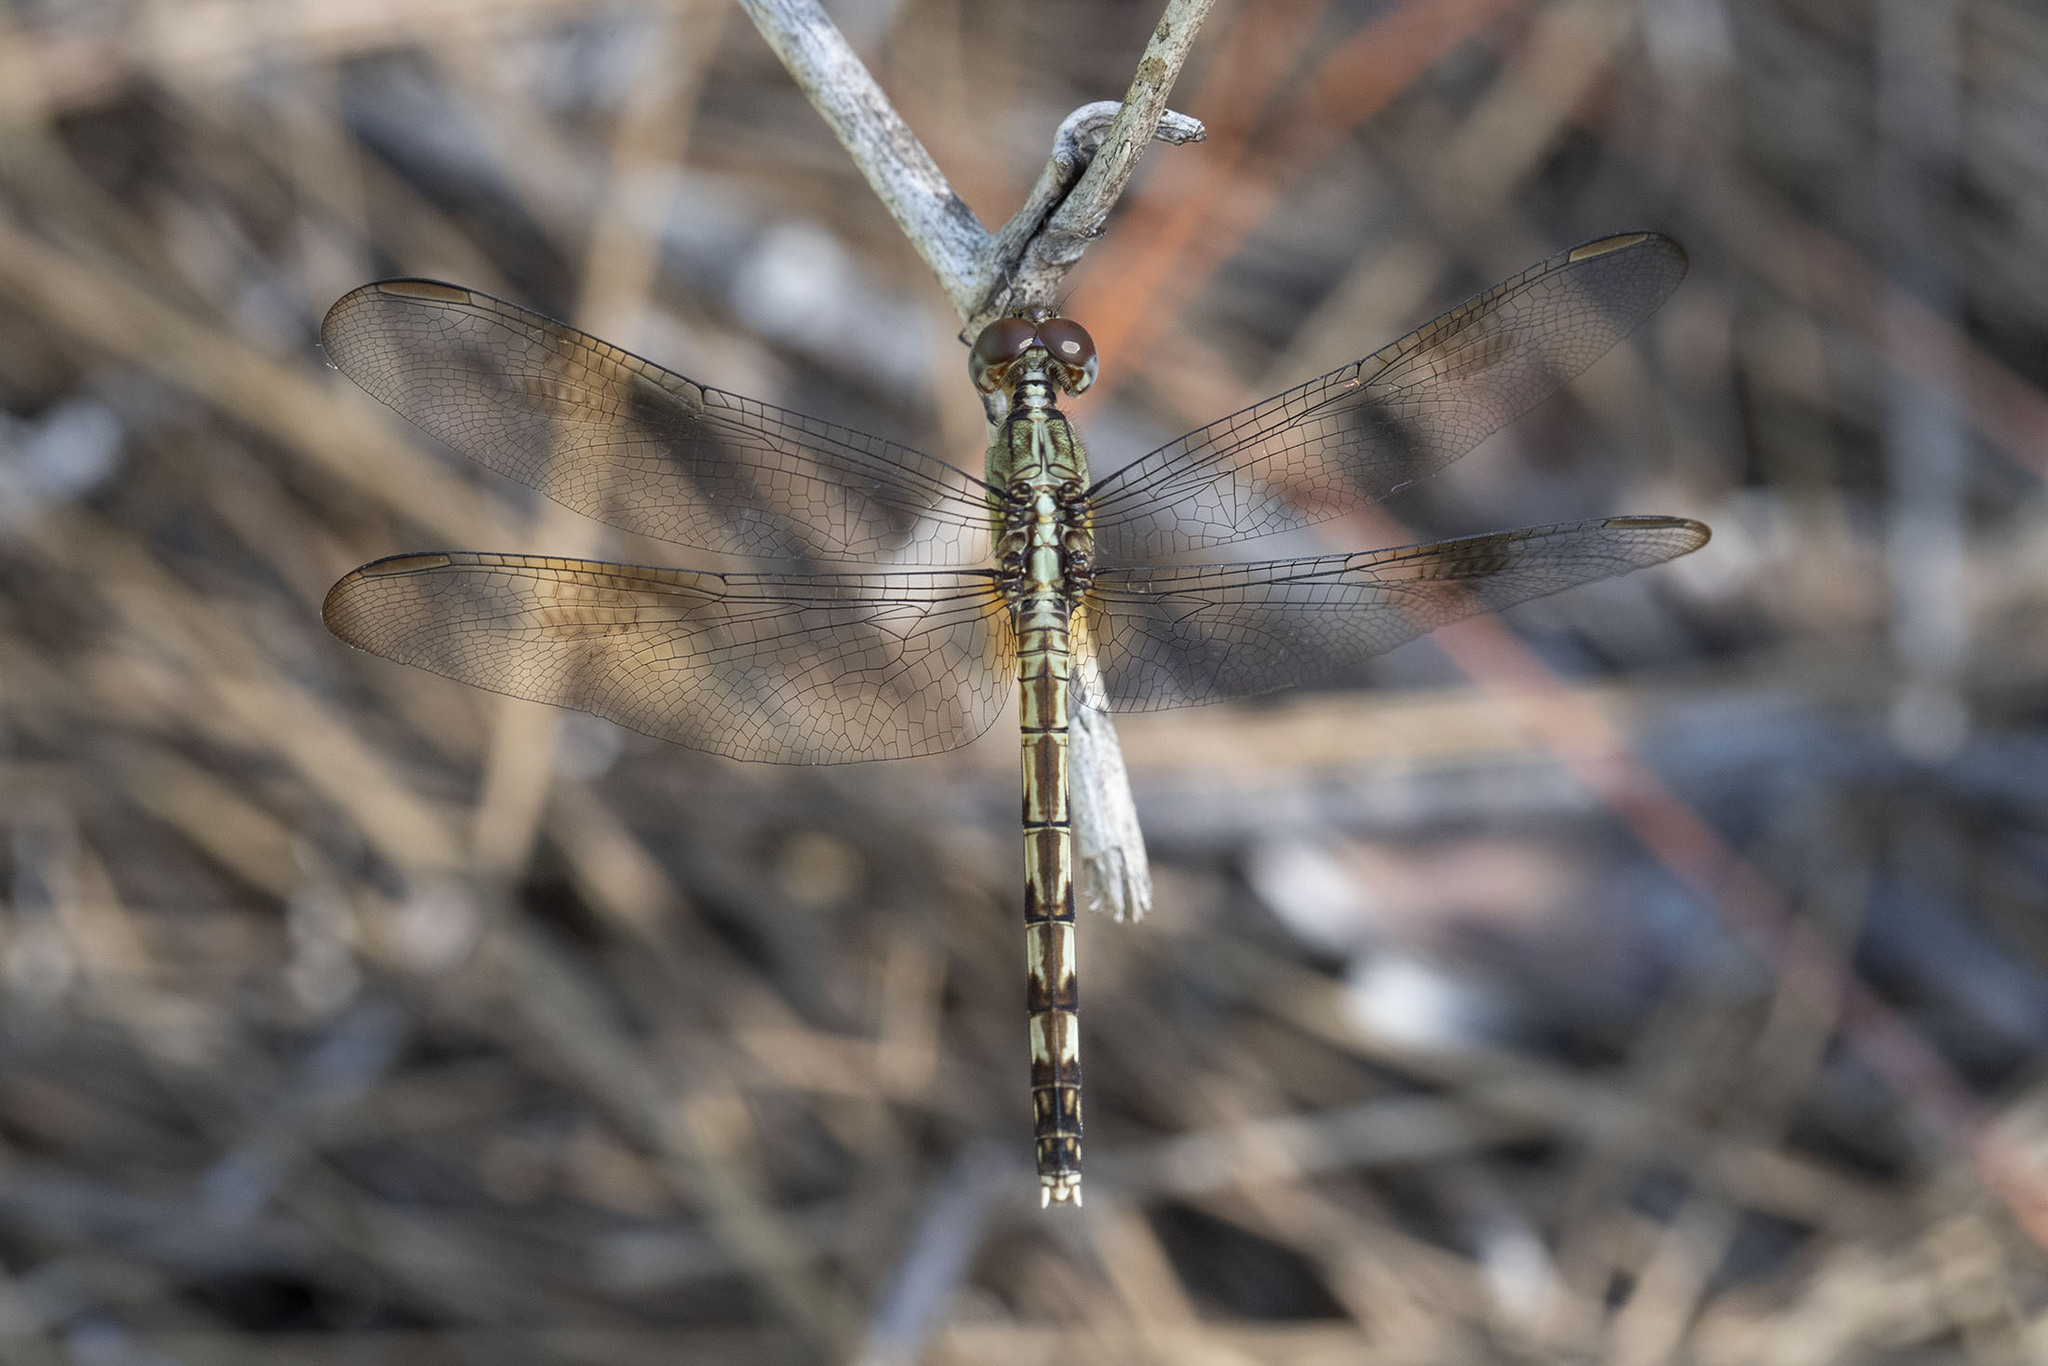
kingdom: Animalia
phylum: Arthropoda
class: Insecta
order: Odonata
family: Libellulidae
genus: Erythrodiplax
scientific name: Erythrodiplax umbrata
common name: Band-winged dragonlet
